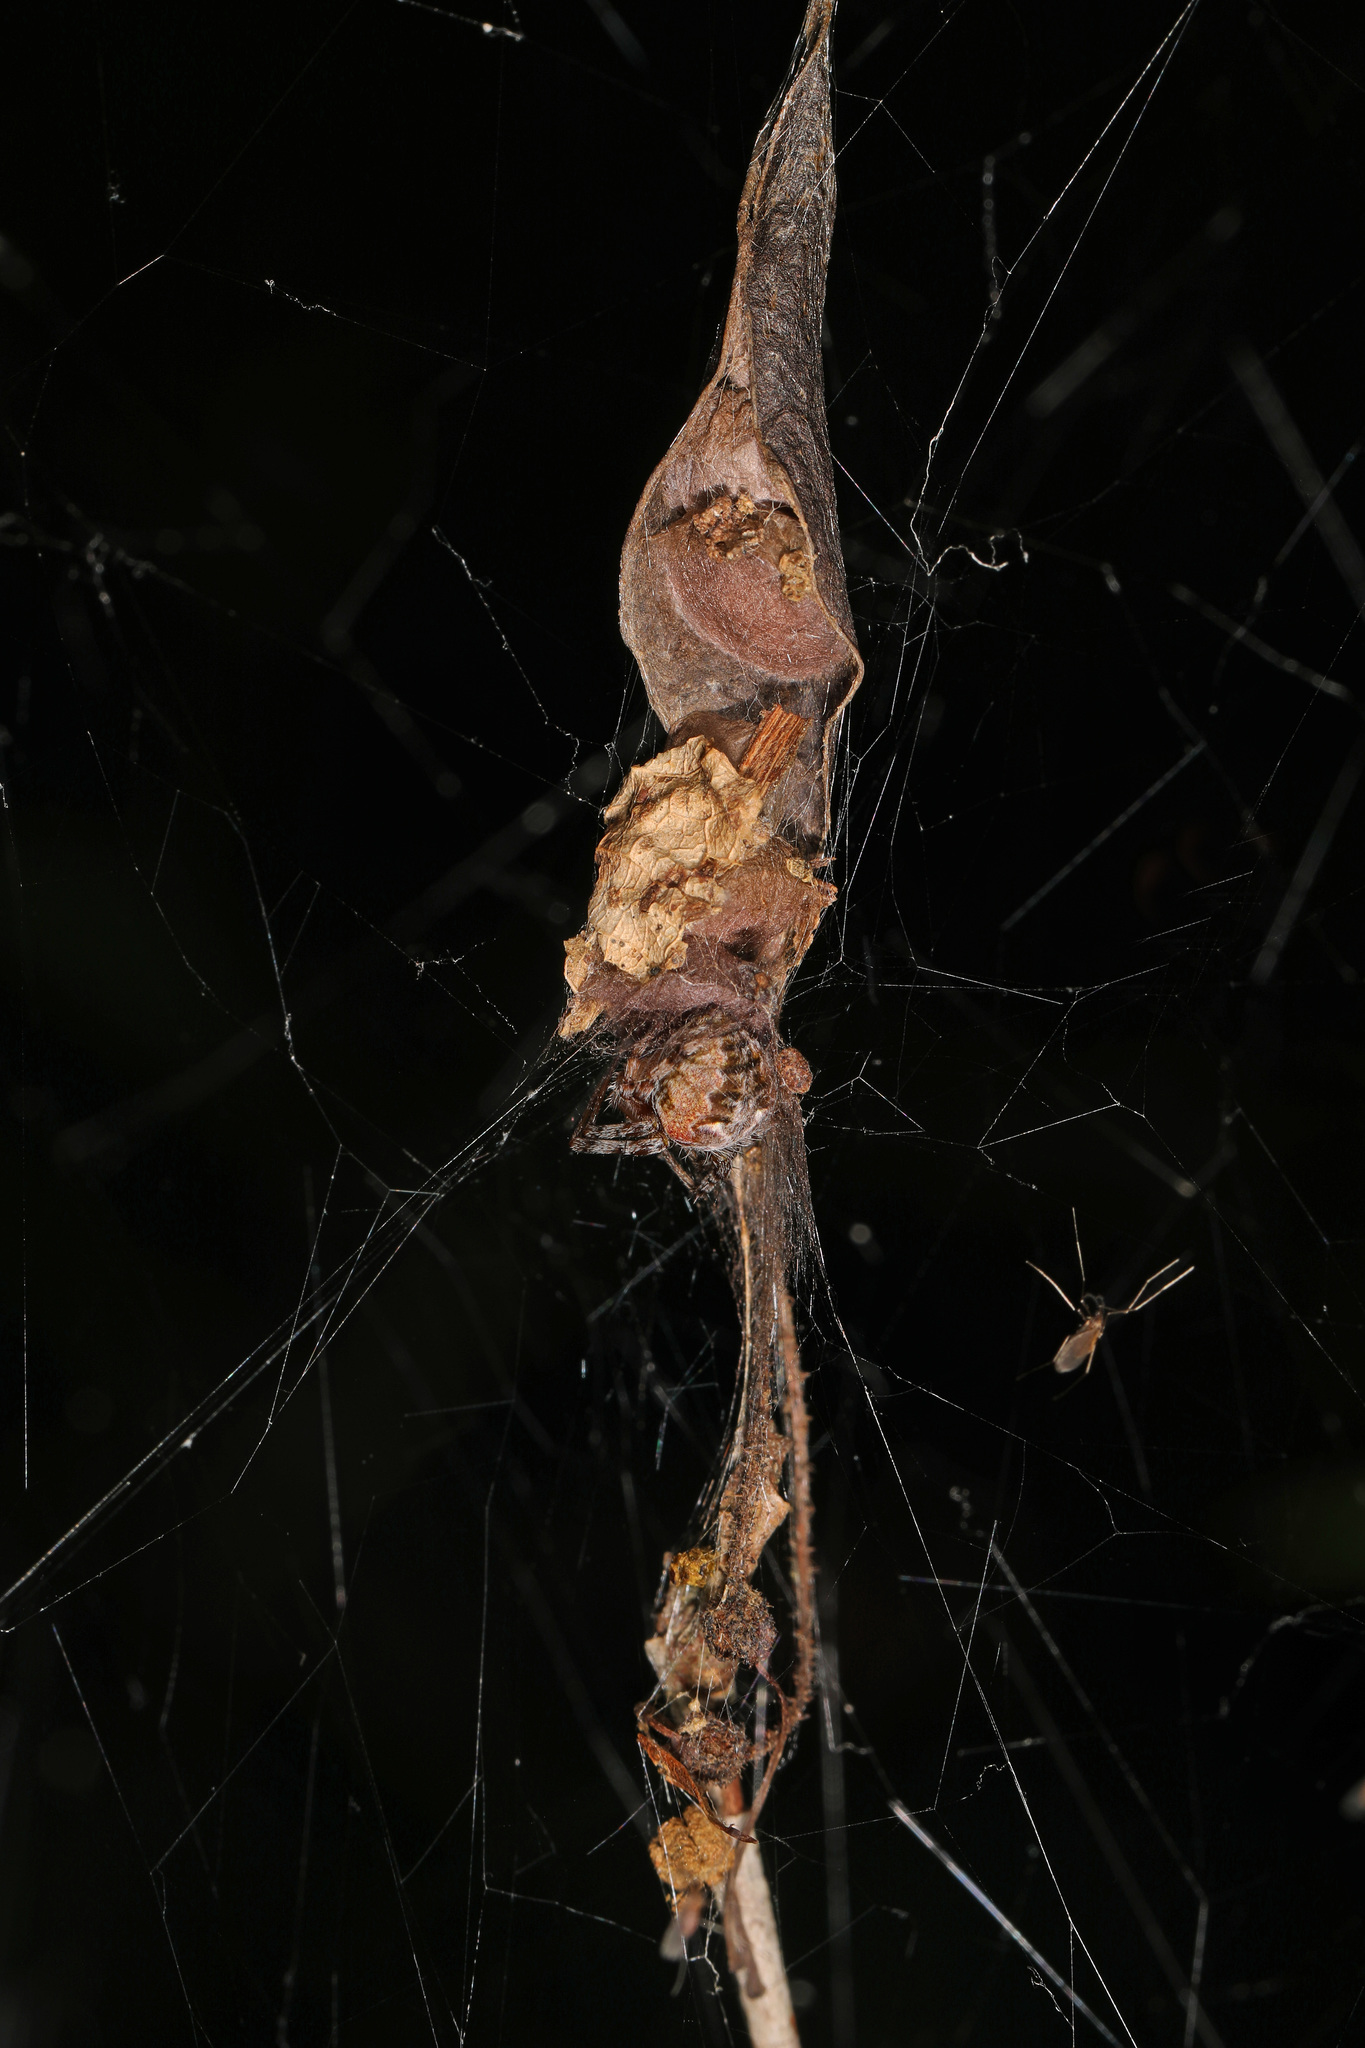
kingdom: Animalia
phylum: Arthropoda
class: Arachnida
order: Araneae
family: Araneidae
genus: Metepeira
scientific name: Metepeira labyrinthea
